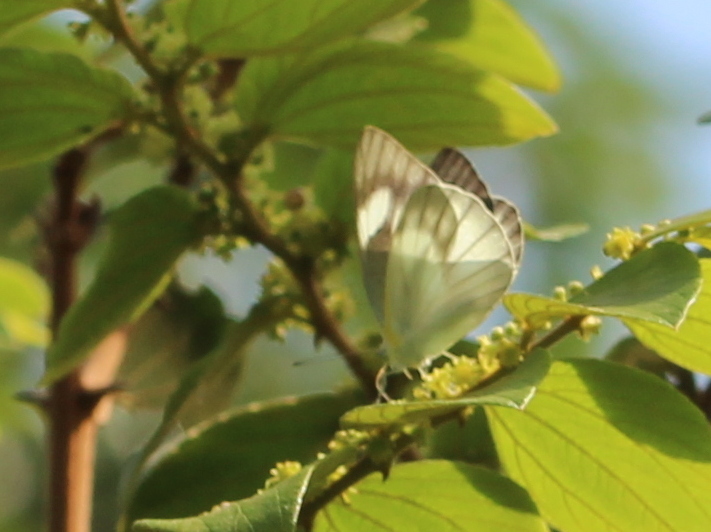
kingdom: Animalia
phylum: Arthropoda
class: Insecta
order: Lepidoptera
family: Pieridae
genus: Appias
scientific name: Appias libythea
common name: Striped albatross
